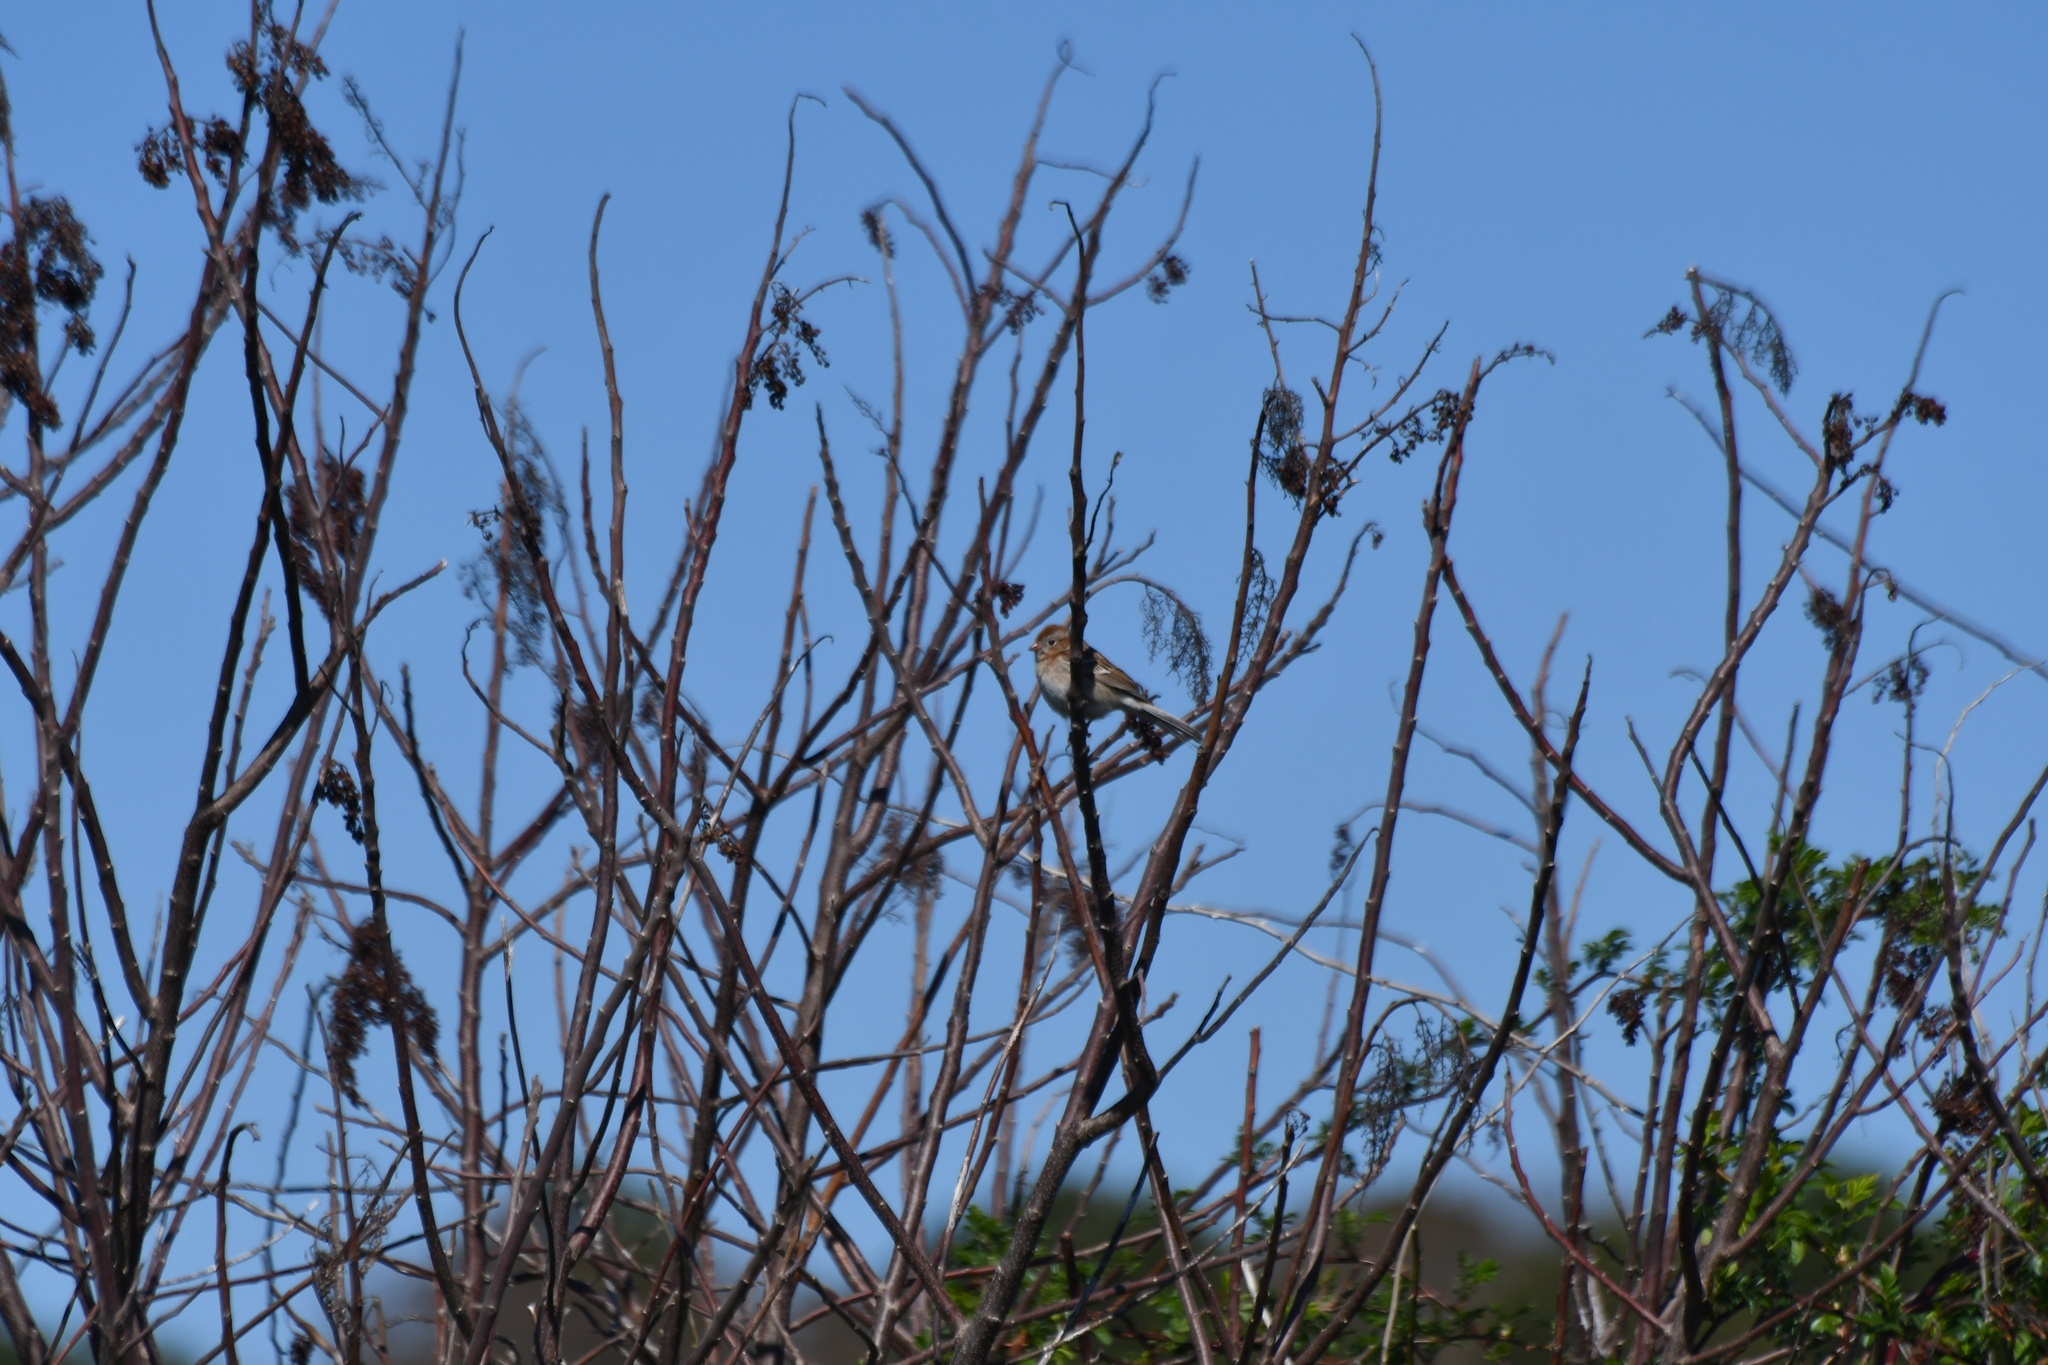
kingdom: Animalia
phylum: Chordata
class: Aves
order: Passeriformes
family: Passerellidae
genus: Spizella
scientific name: Spizella pusilla
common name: Field sparrow
